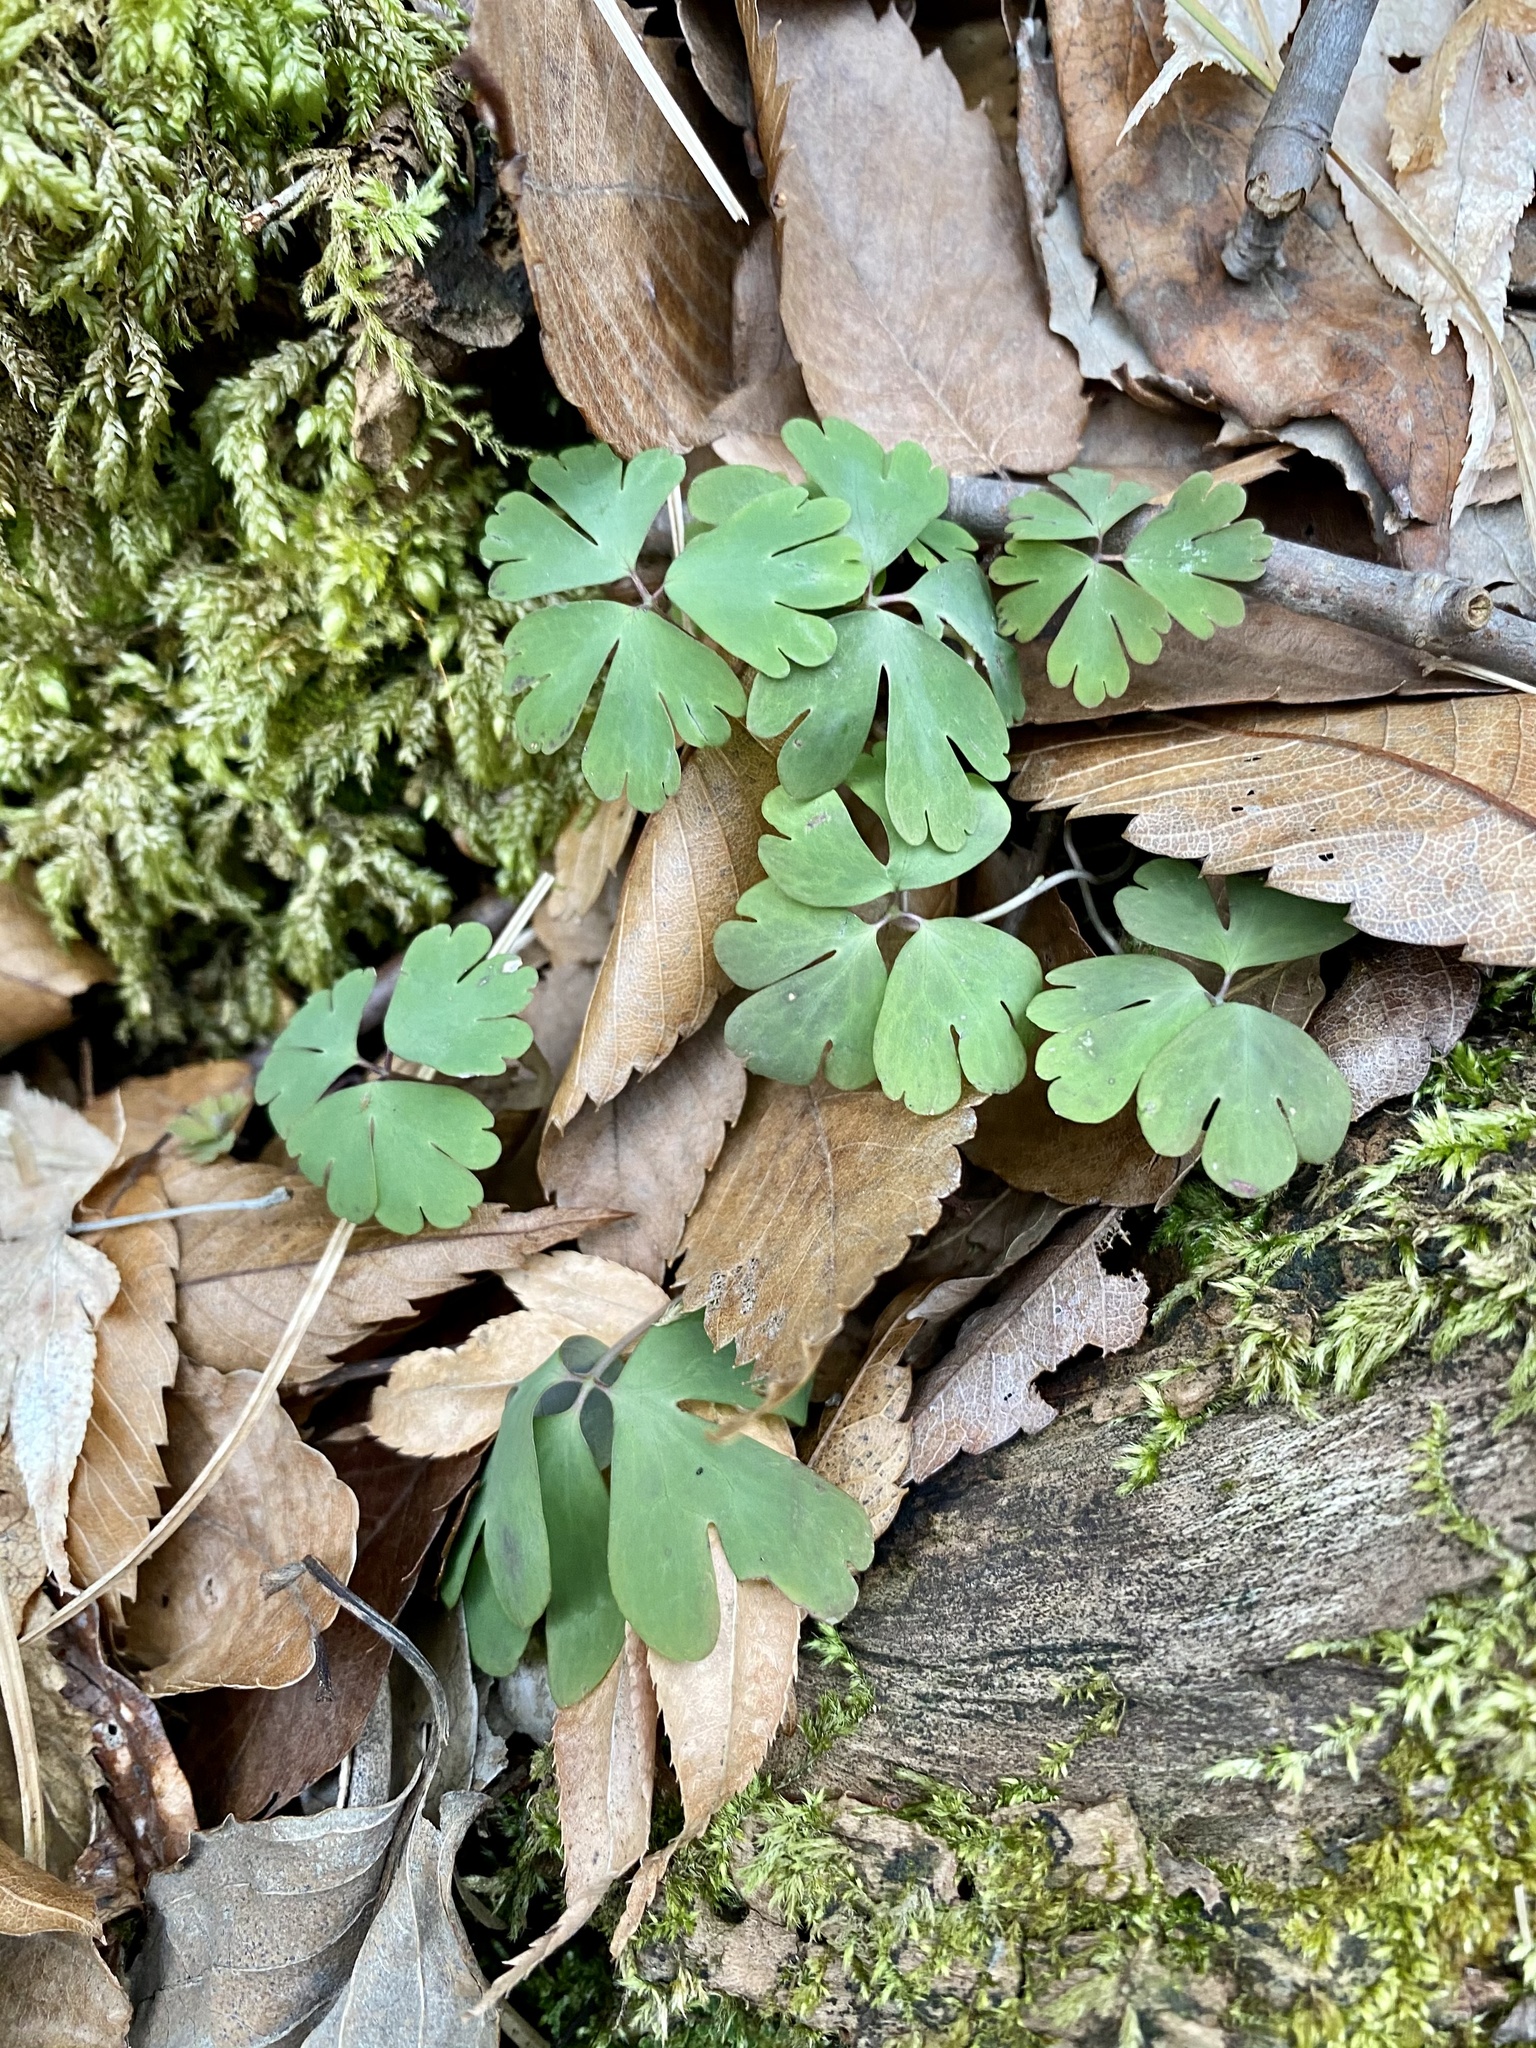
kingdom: Plantae
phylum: Tracheophyta
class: Magnoliopsida
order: Ranunculales
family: Ranunculaceae
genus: Semiaquilegia
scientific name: Semiaquilegia adoxoides
